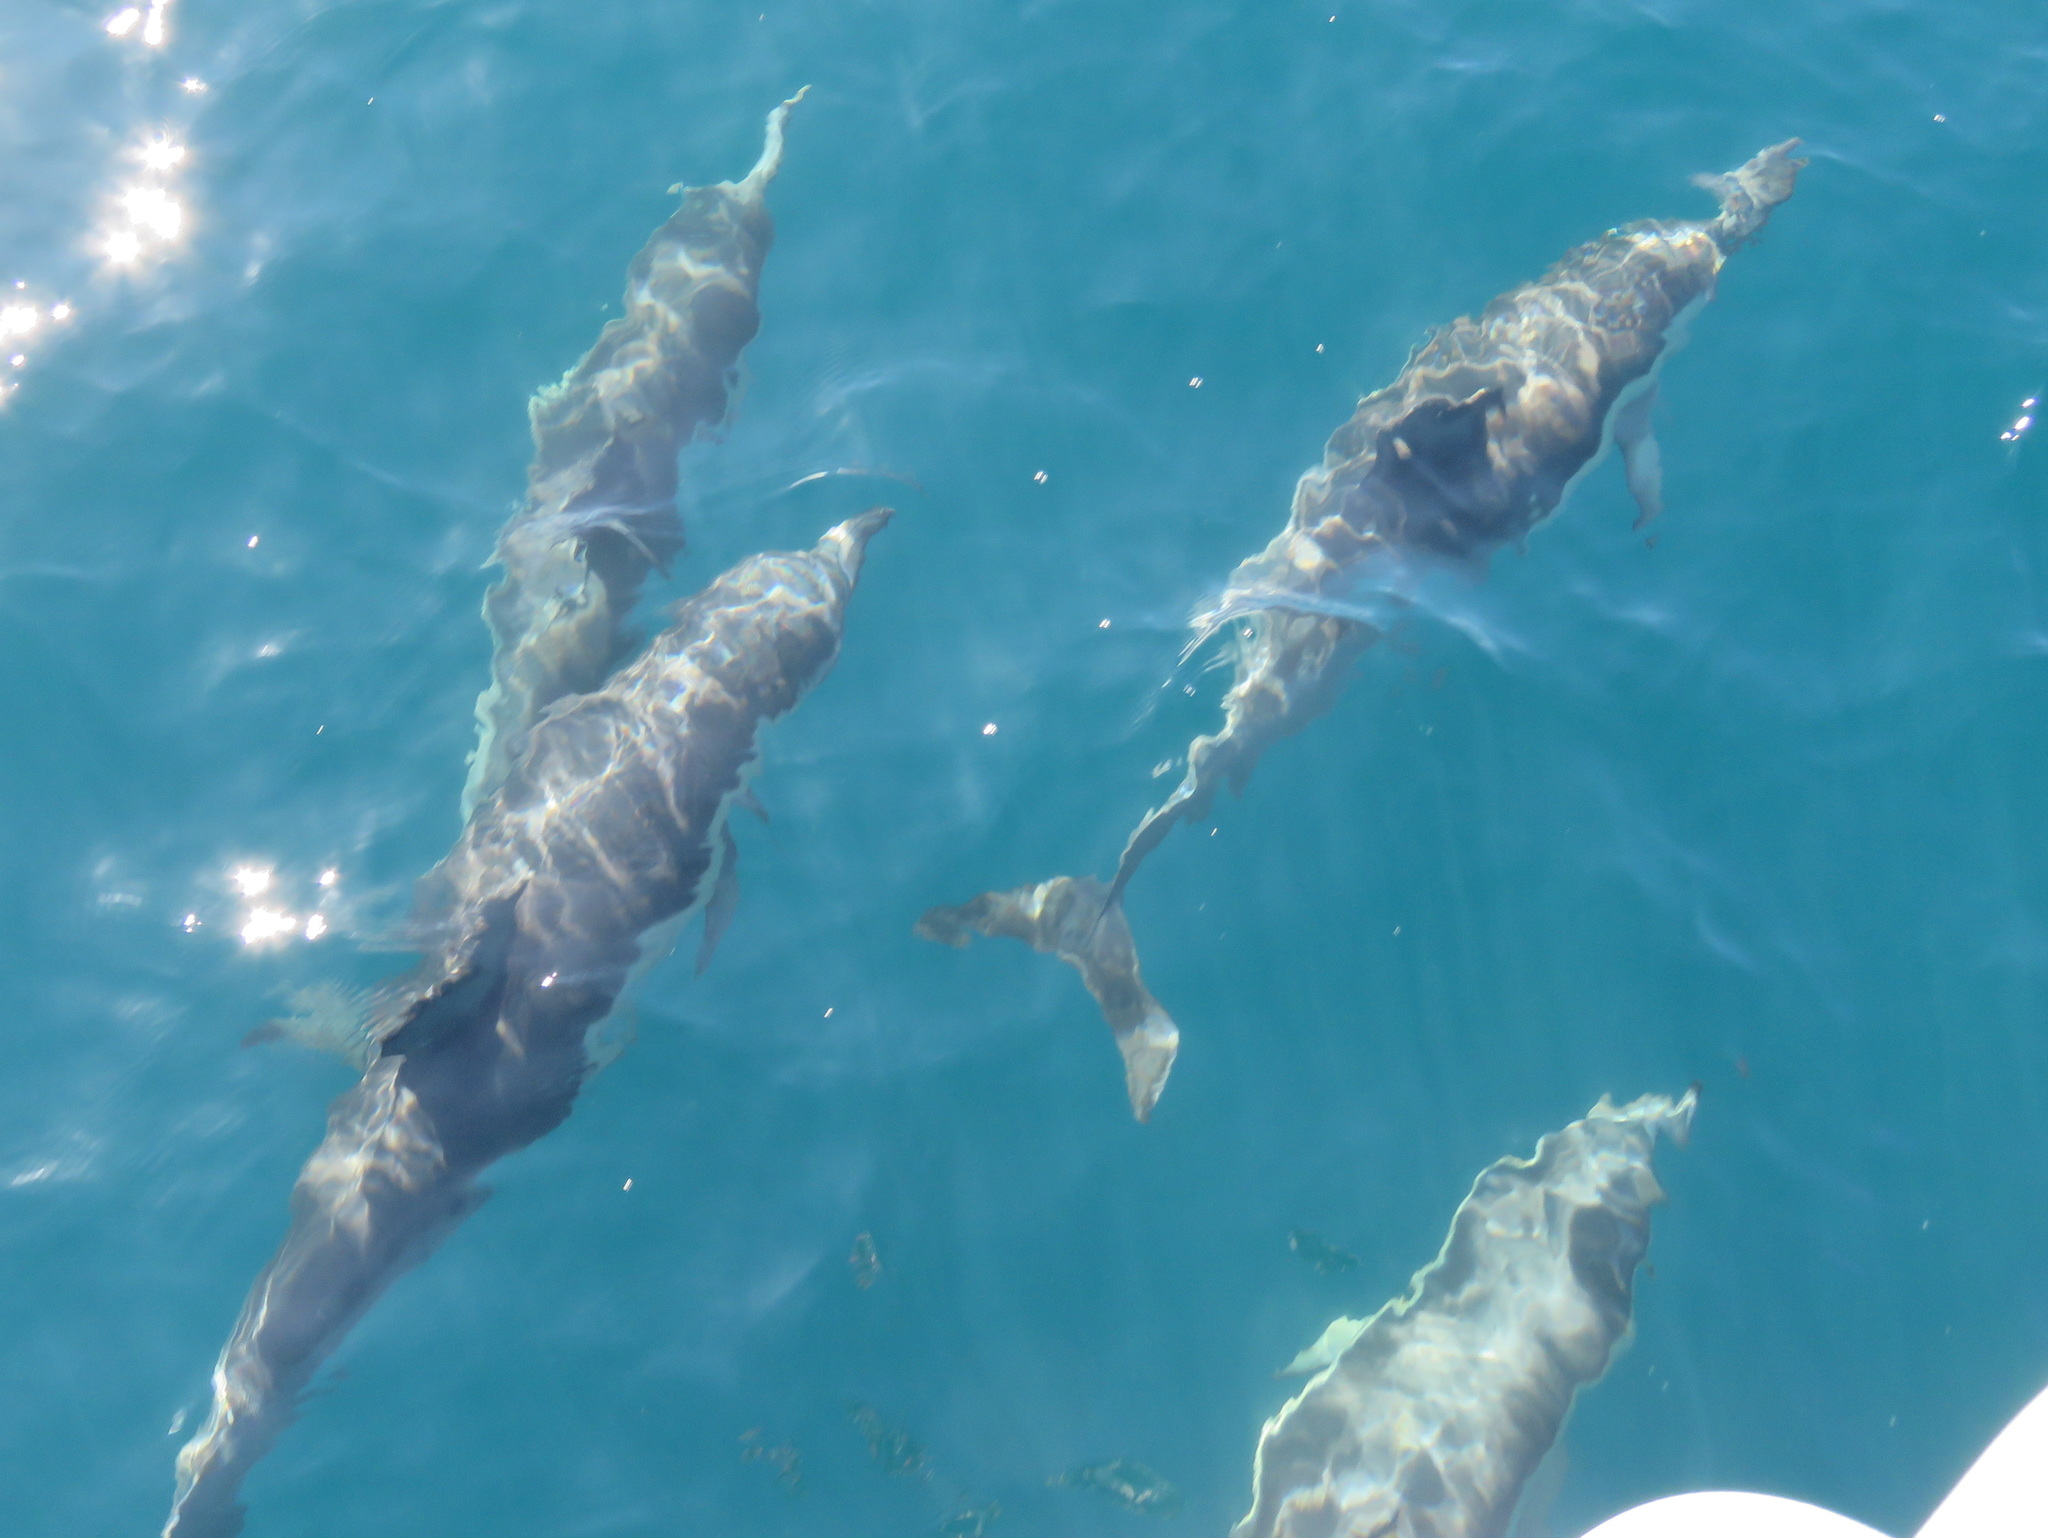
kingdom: Animalia
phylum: Chordata
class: Mammalia
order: Cetacea
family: Delphinidae
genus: Delphinus
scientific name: Delphinus delphis
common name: Common dolphin
